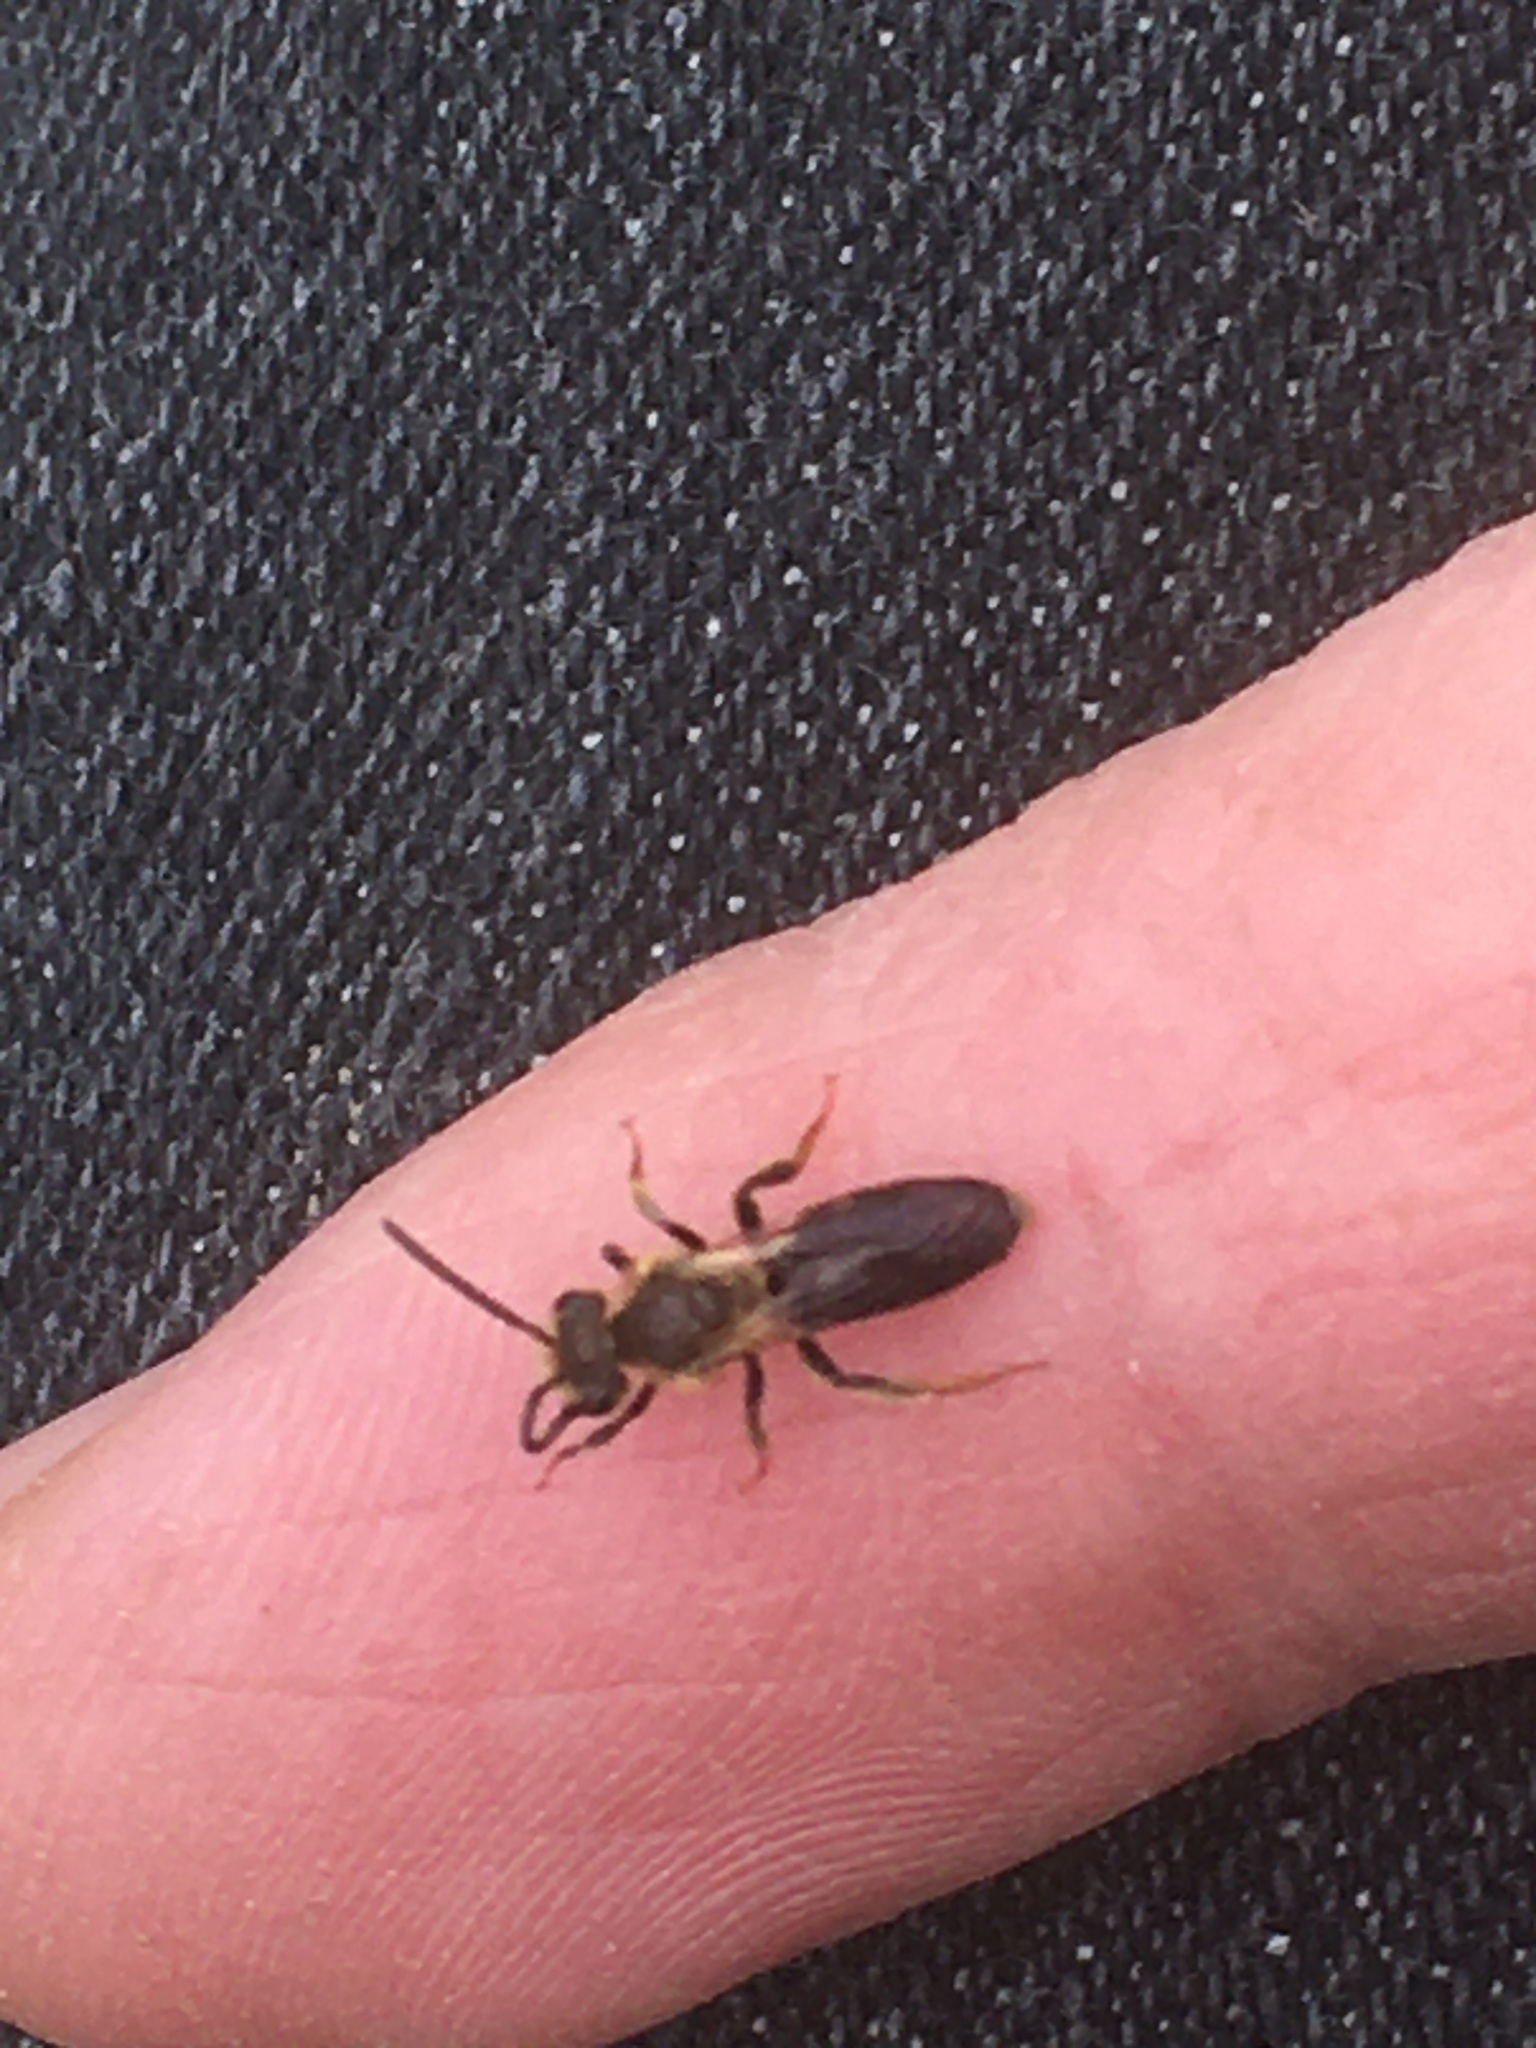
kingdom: Animalia
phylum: Arthropoda
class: Insecta
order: Hymenoptera
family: Andrenidae
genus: Andrena
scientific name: Andrena
